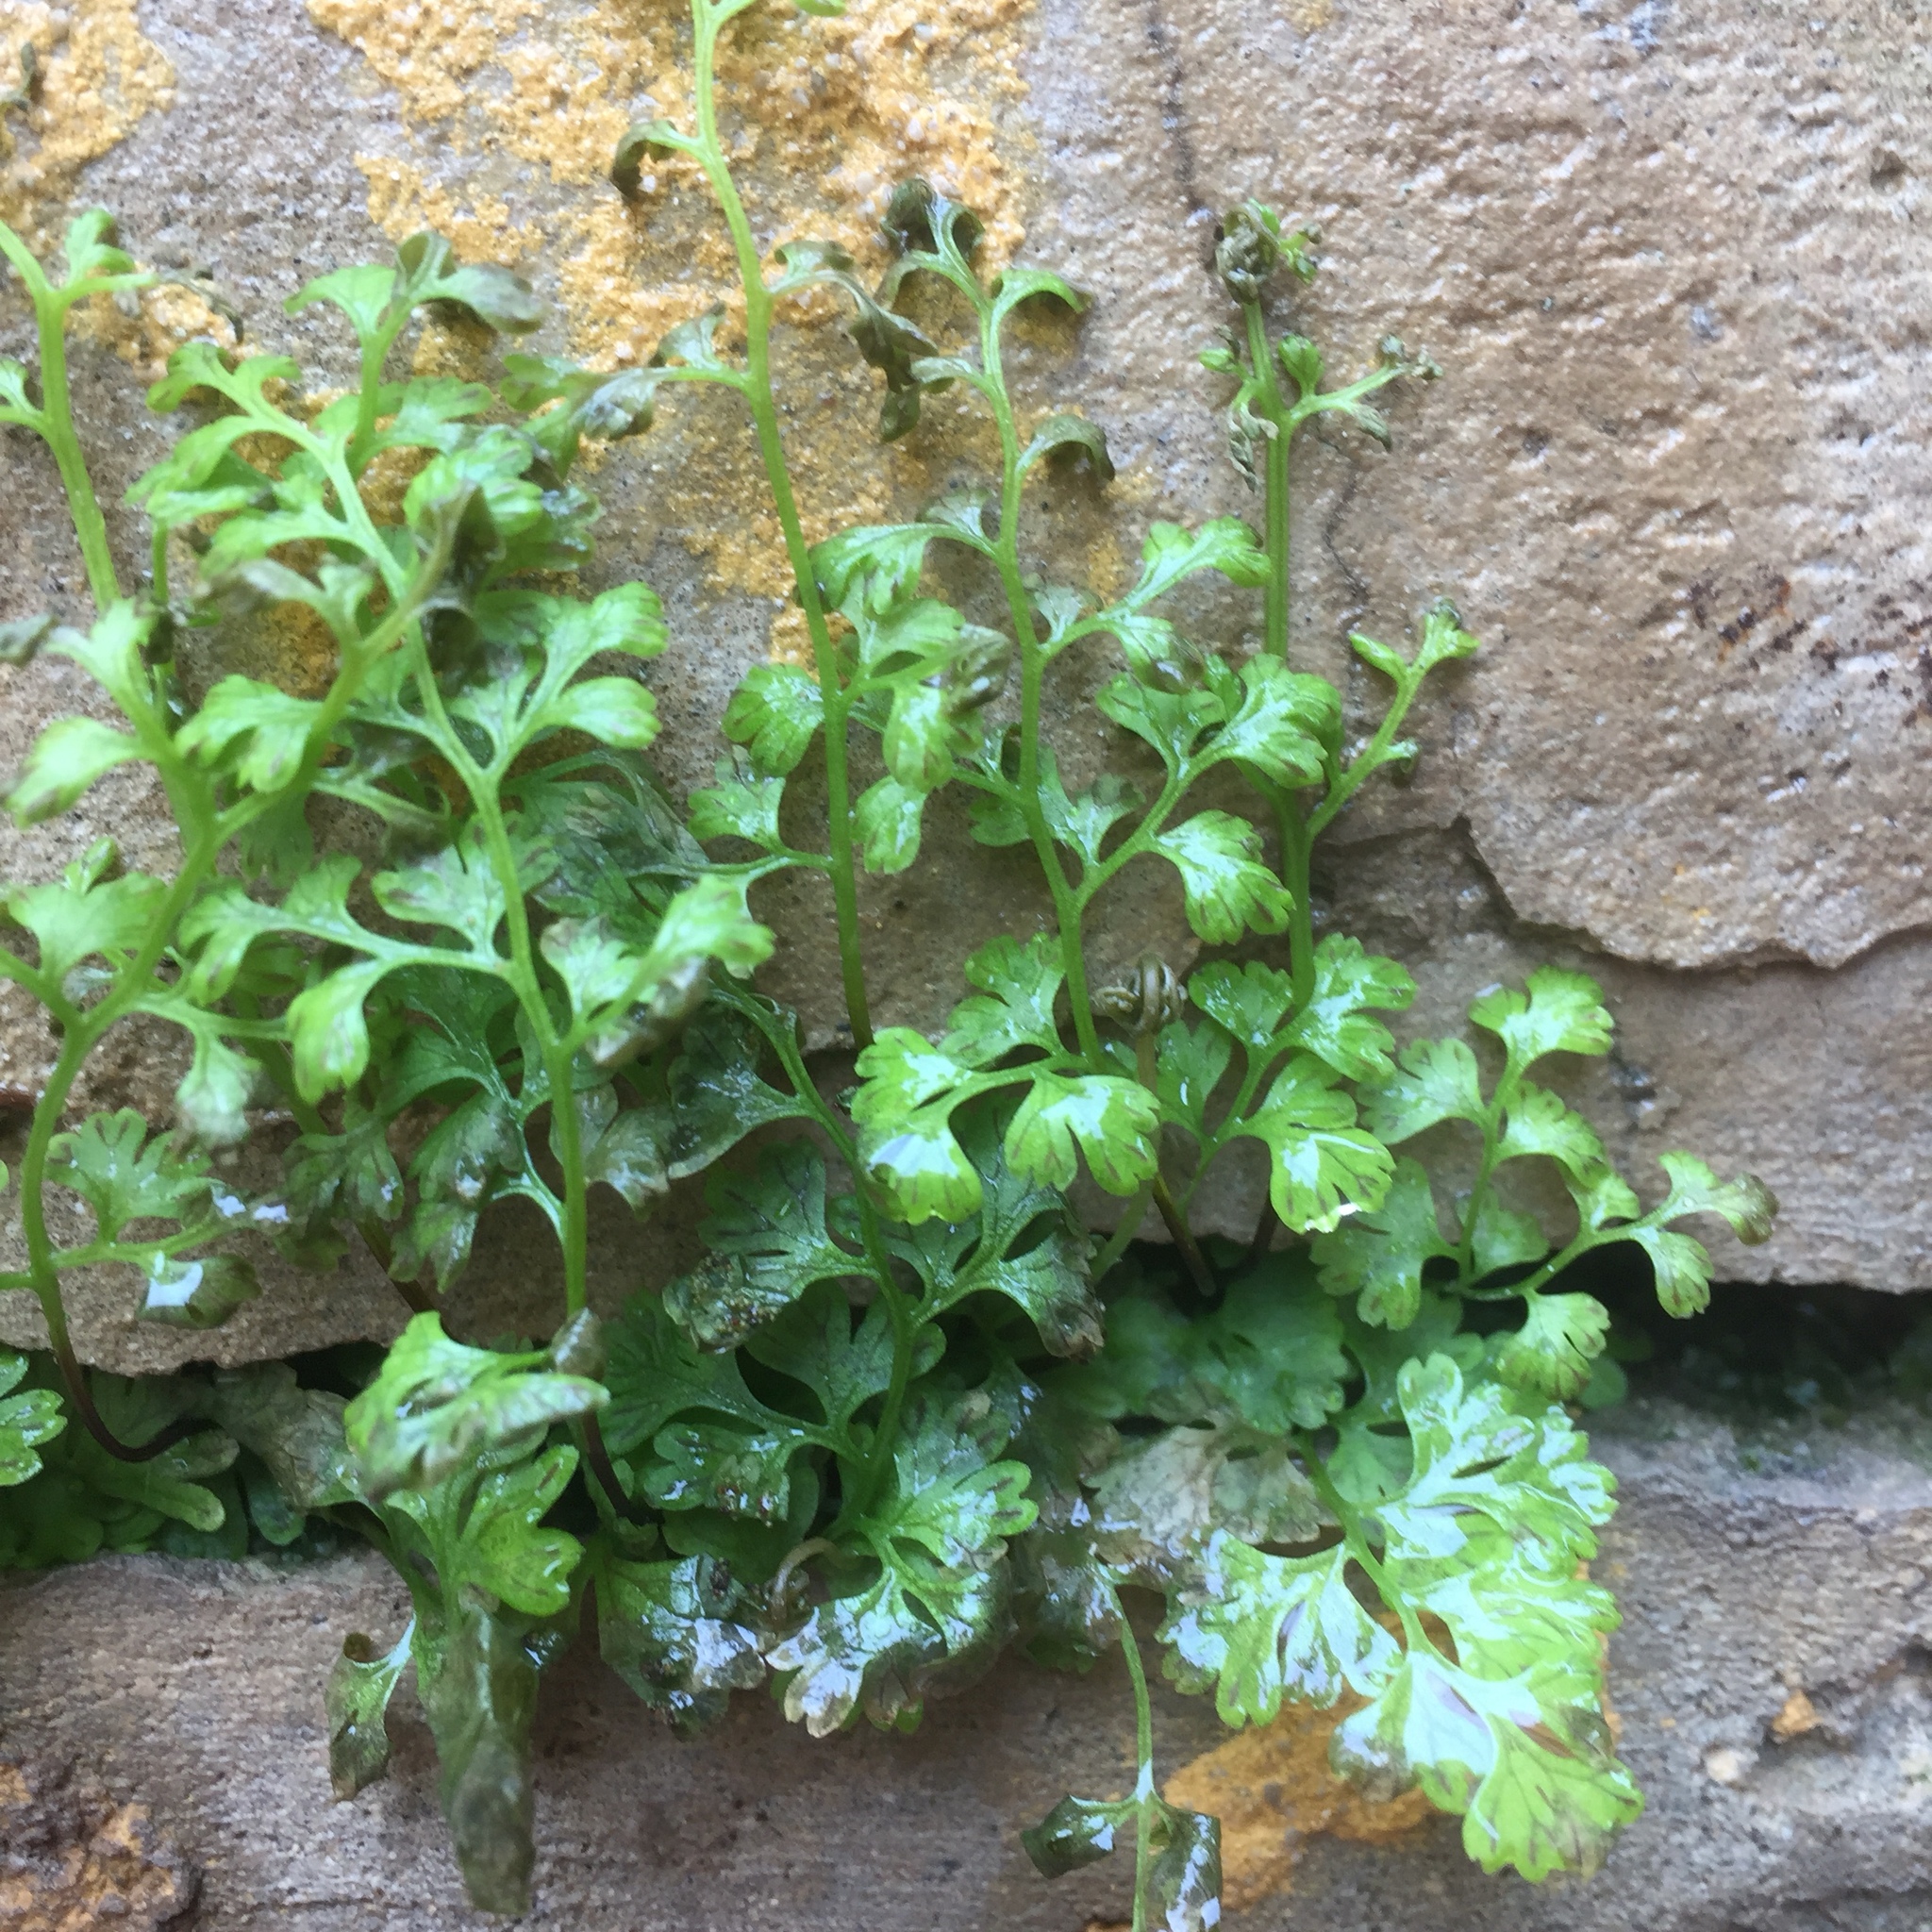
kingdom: Plantae
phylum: Tracheophyta
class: Polypodiopsida
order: Polypodiales
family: Pteridaceae
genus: Anogramma
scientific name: Anogramma leptophylla
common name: Jersey fern
